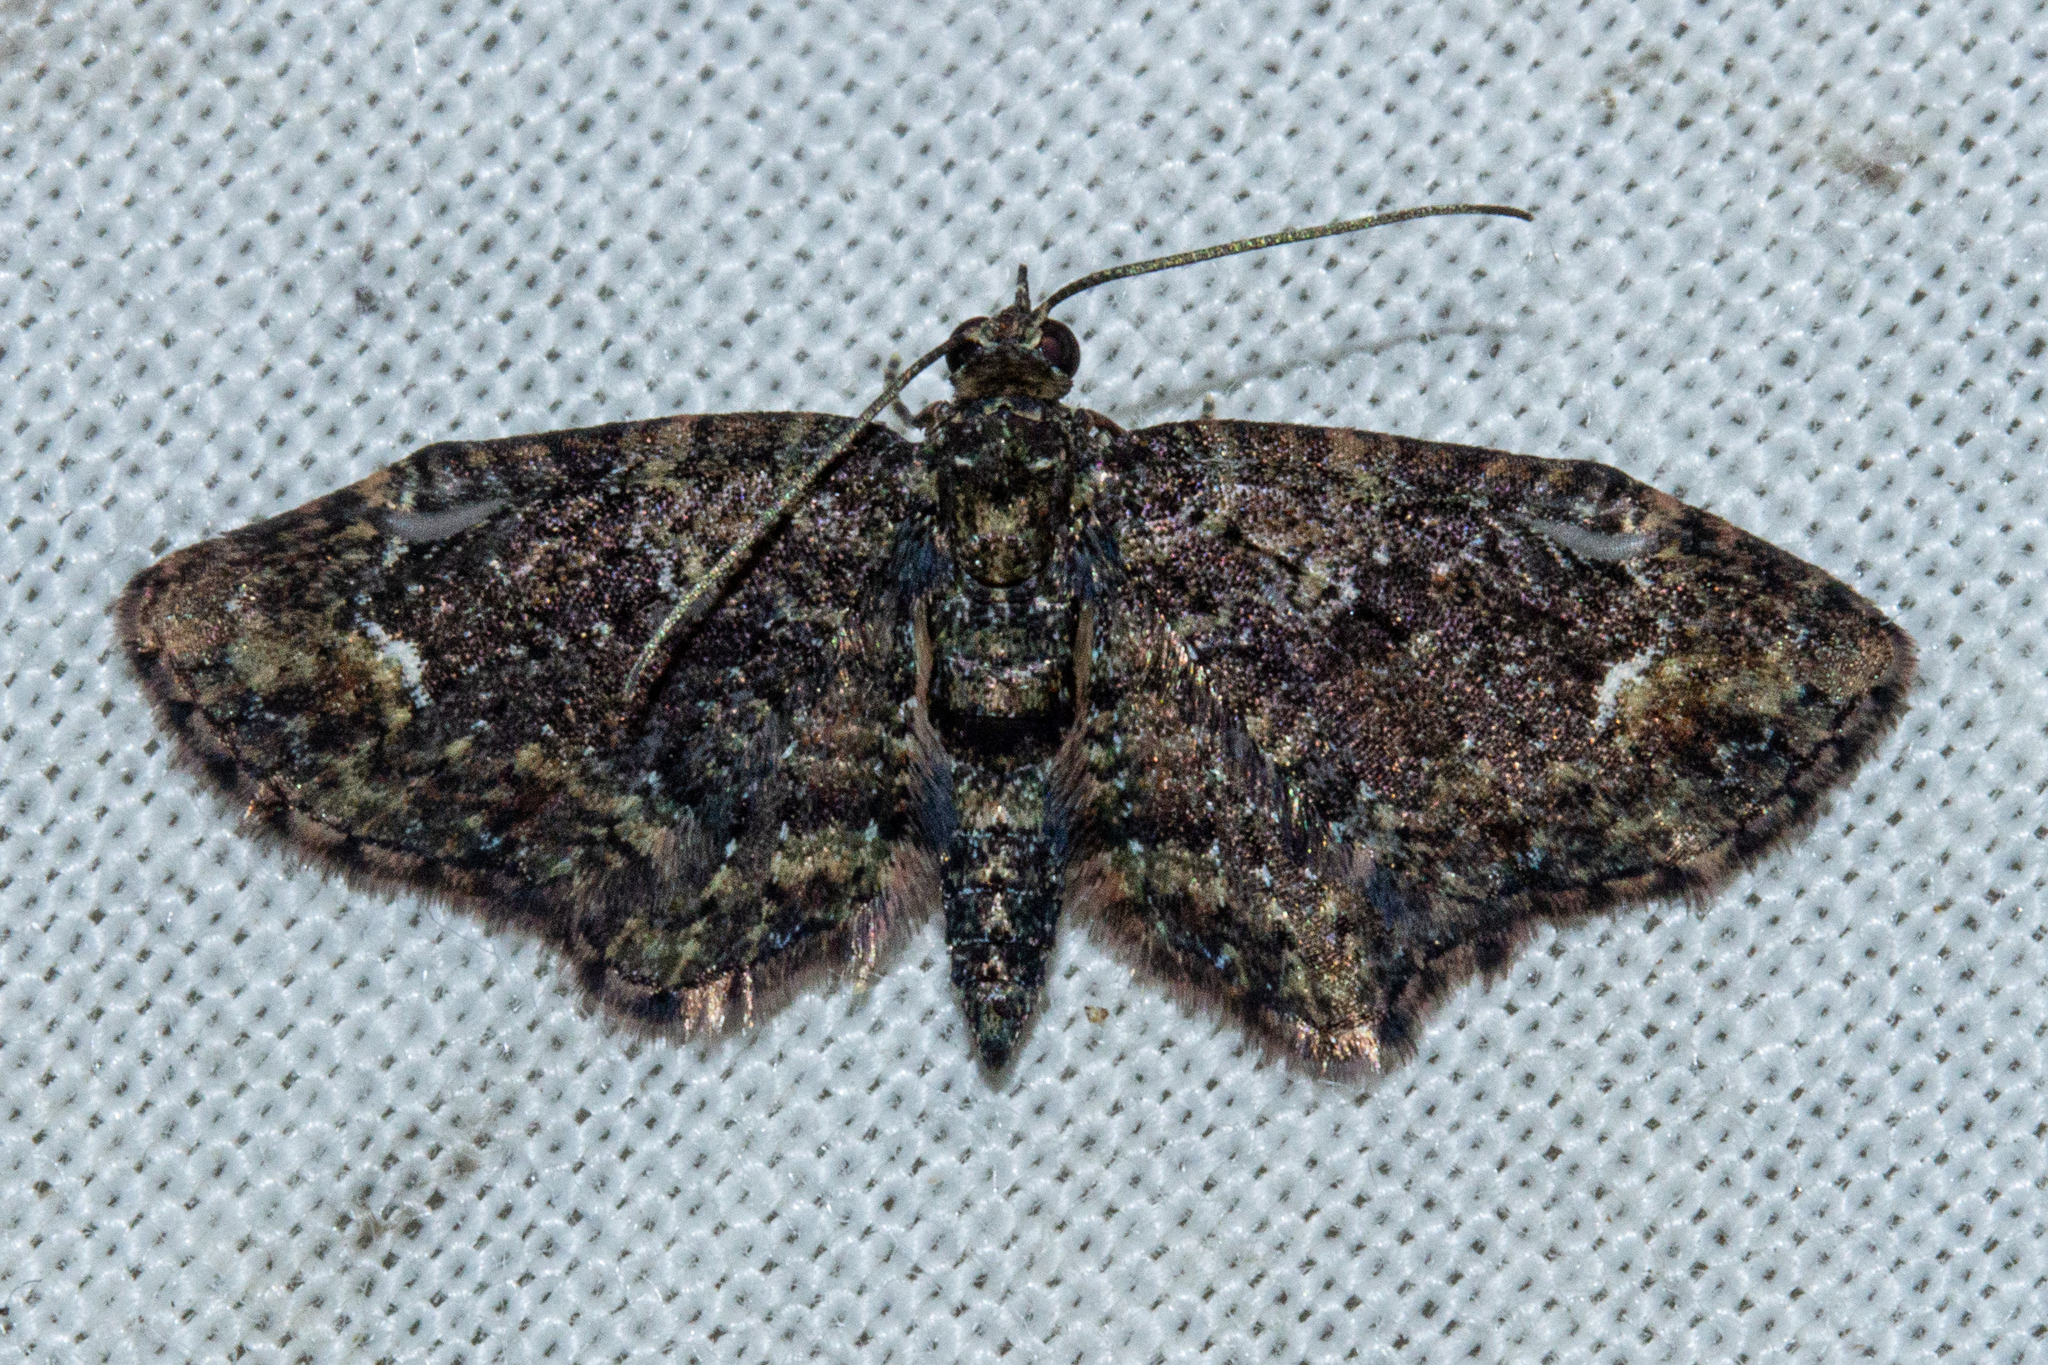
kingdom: Animalia
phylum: Arthropoda
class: Insecta
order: Lepidoptera
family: Geometridae
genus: Pasiphilodes
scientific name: Pasiphilodes testulata
